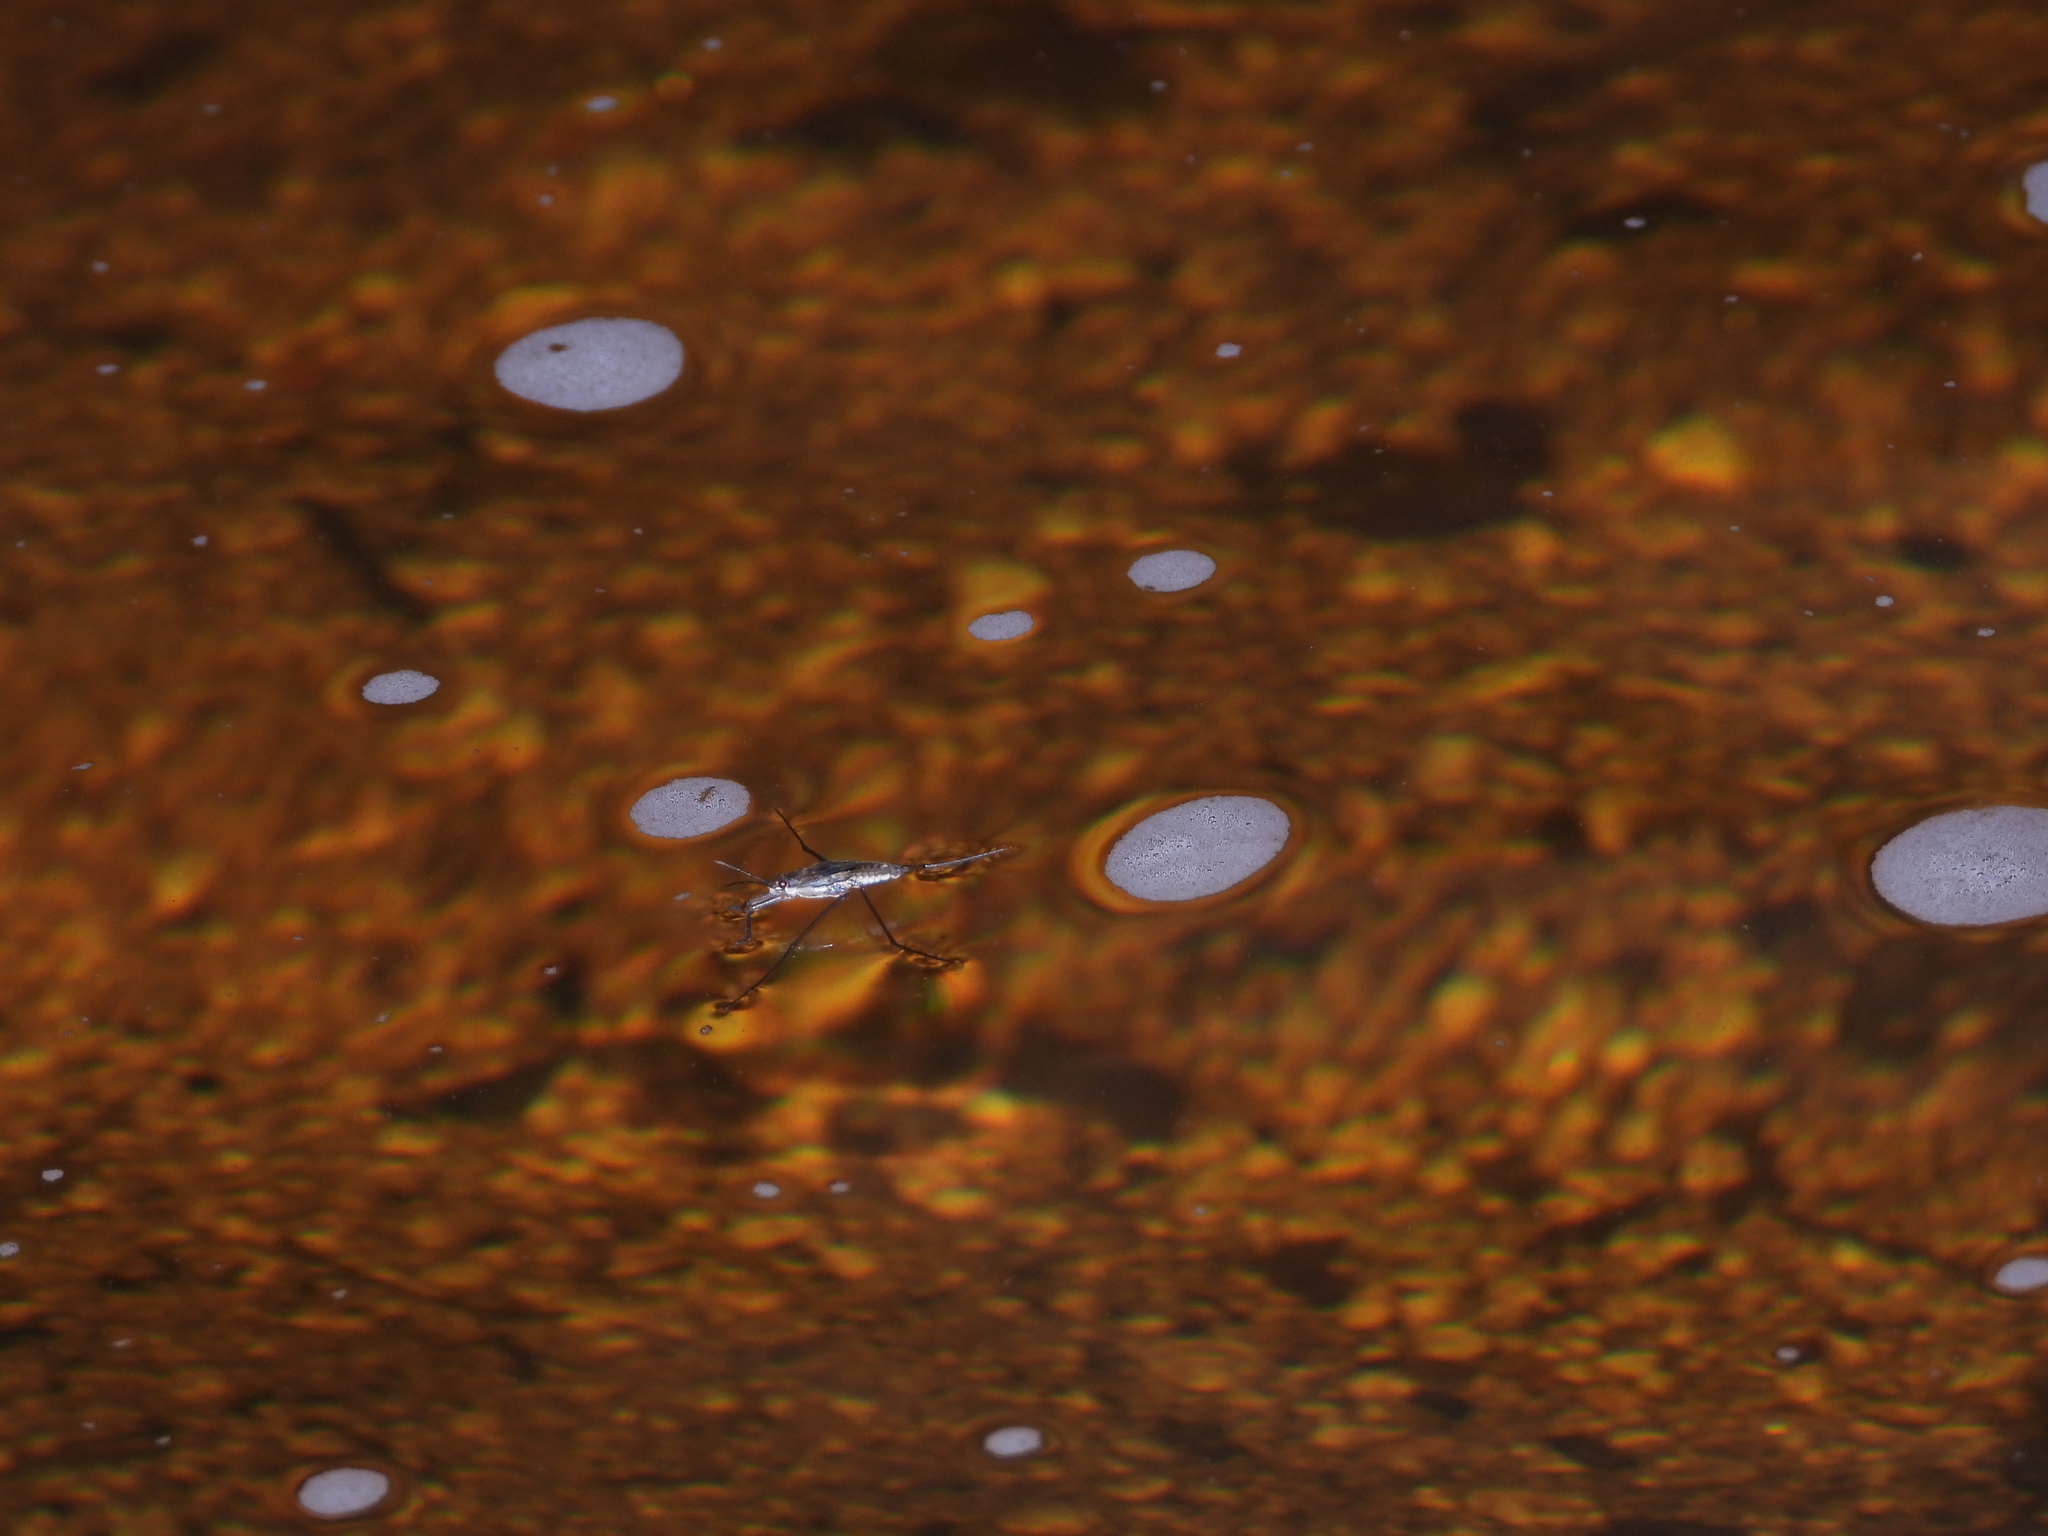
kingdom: Animalia
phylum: Arthropoda
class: Insecta
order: Hemiptera
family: Gerridae
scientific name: Gerridae
